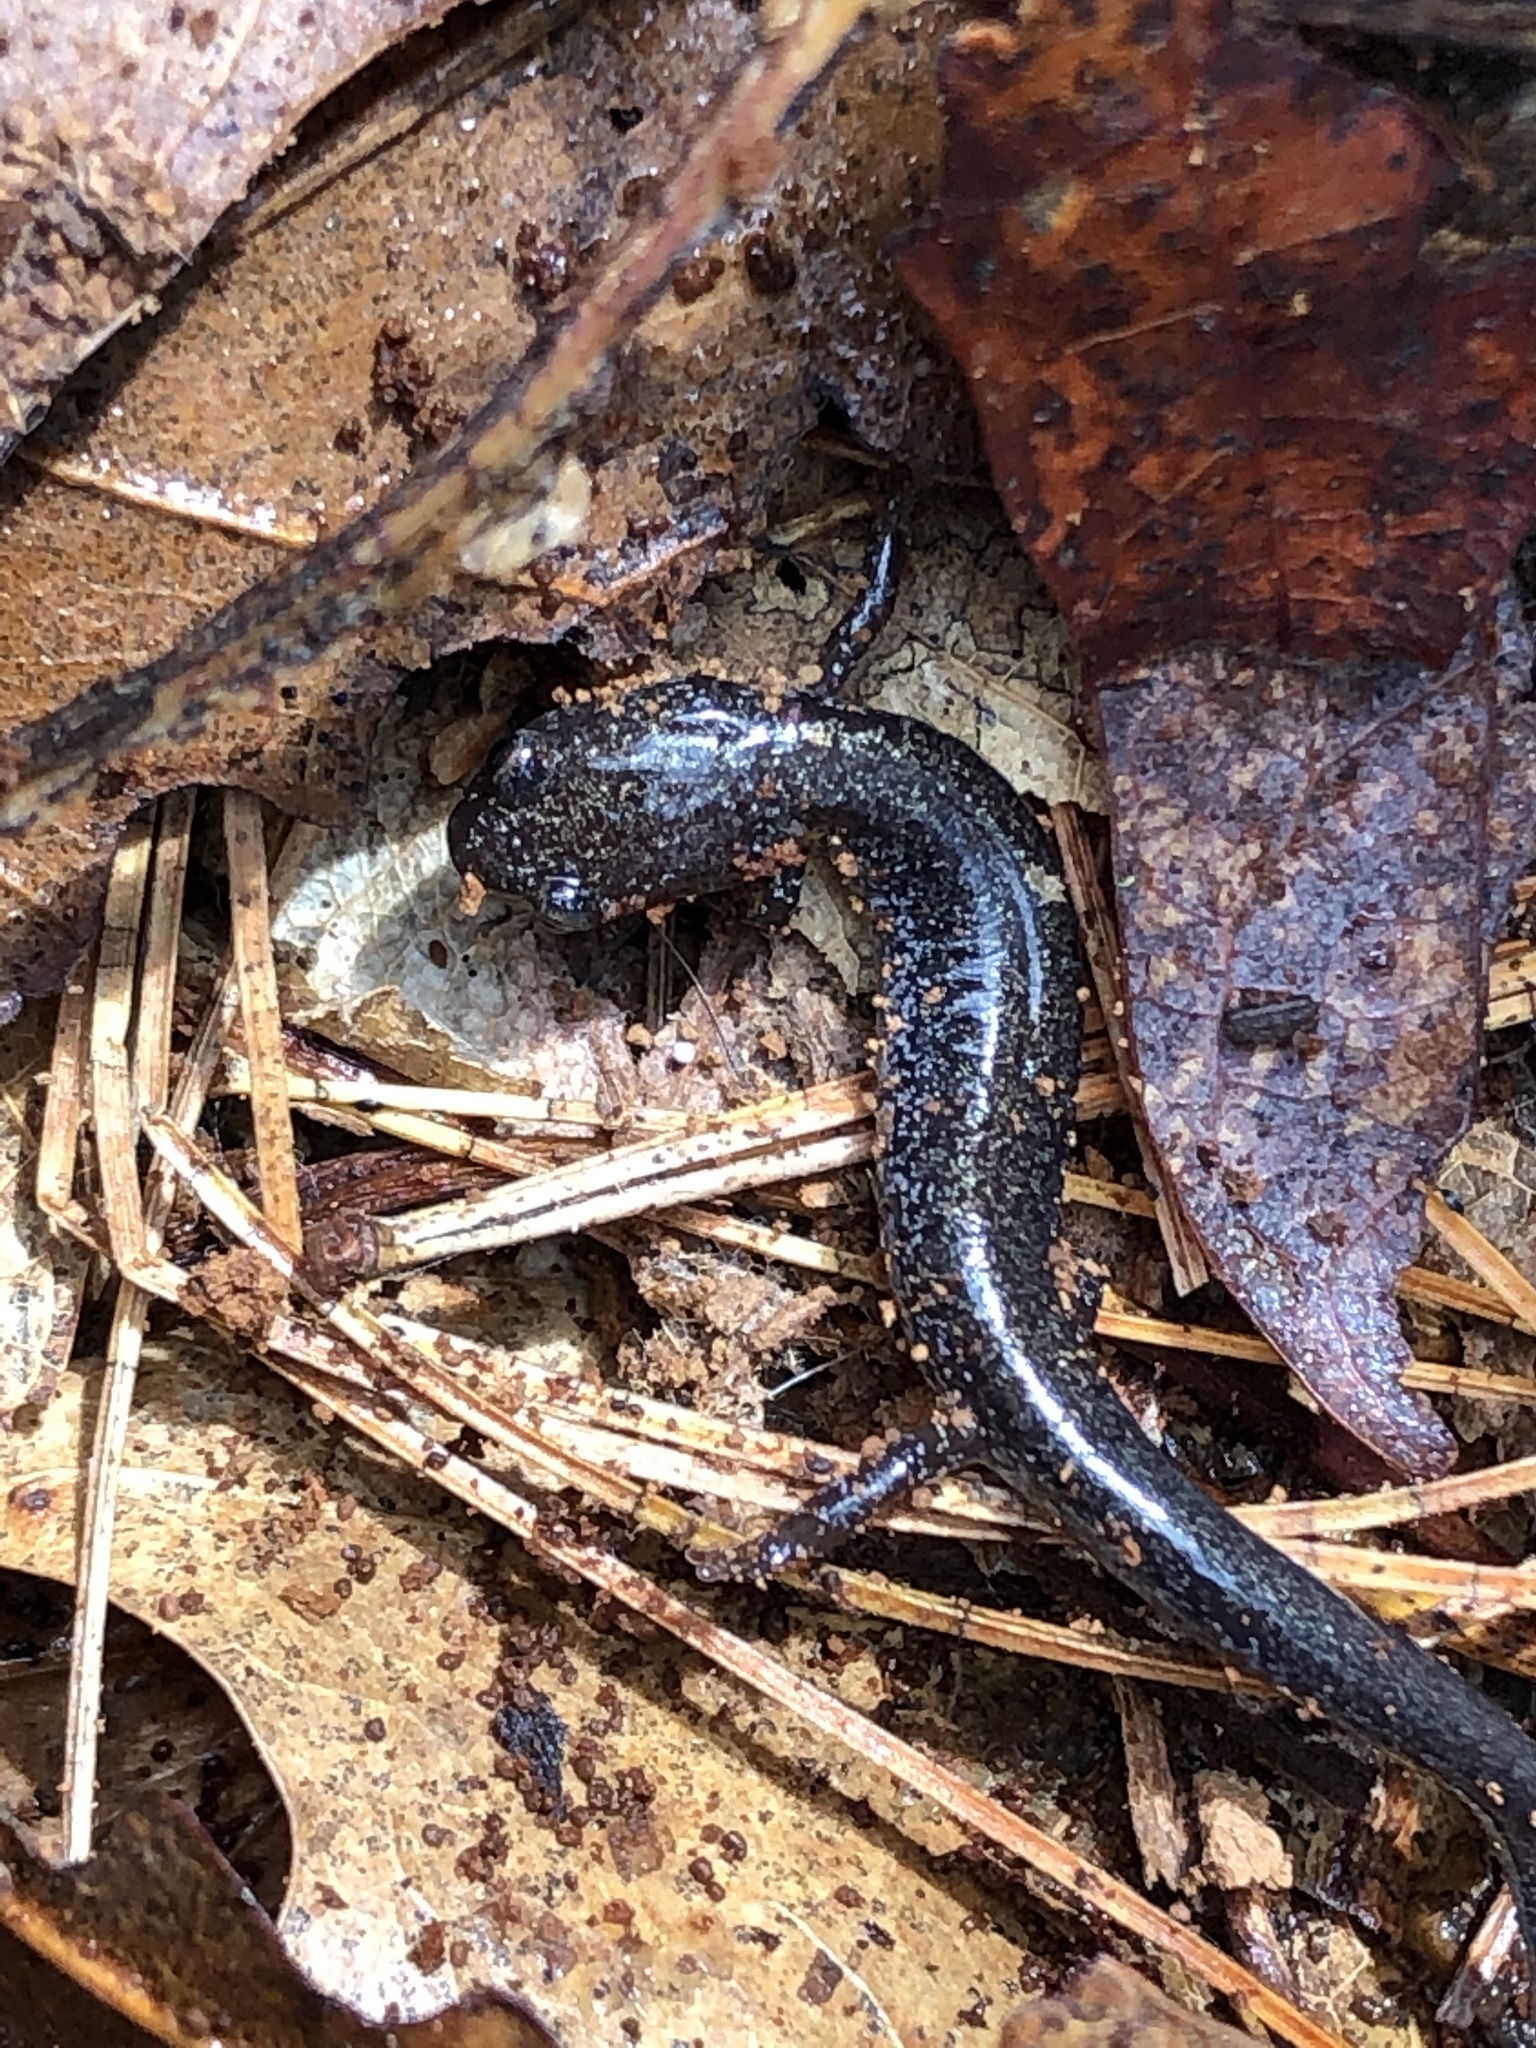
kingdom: Animalia
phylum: Chordata
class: Amphibia
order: Caudata
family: Plethodontidae
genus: Plethodon
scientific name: Plethodon cinereus
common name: Redback salamander
